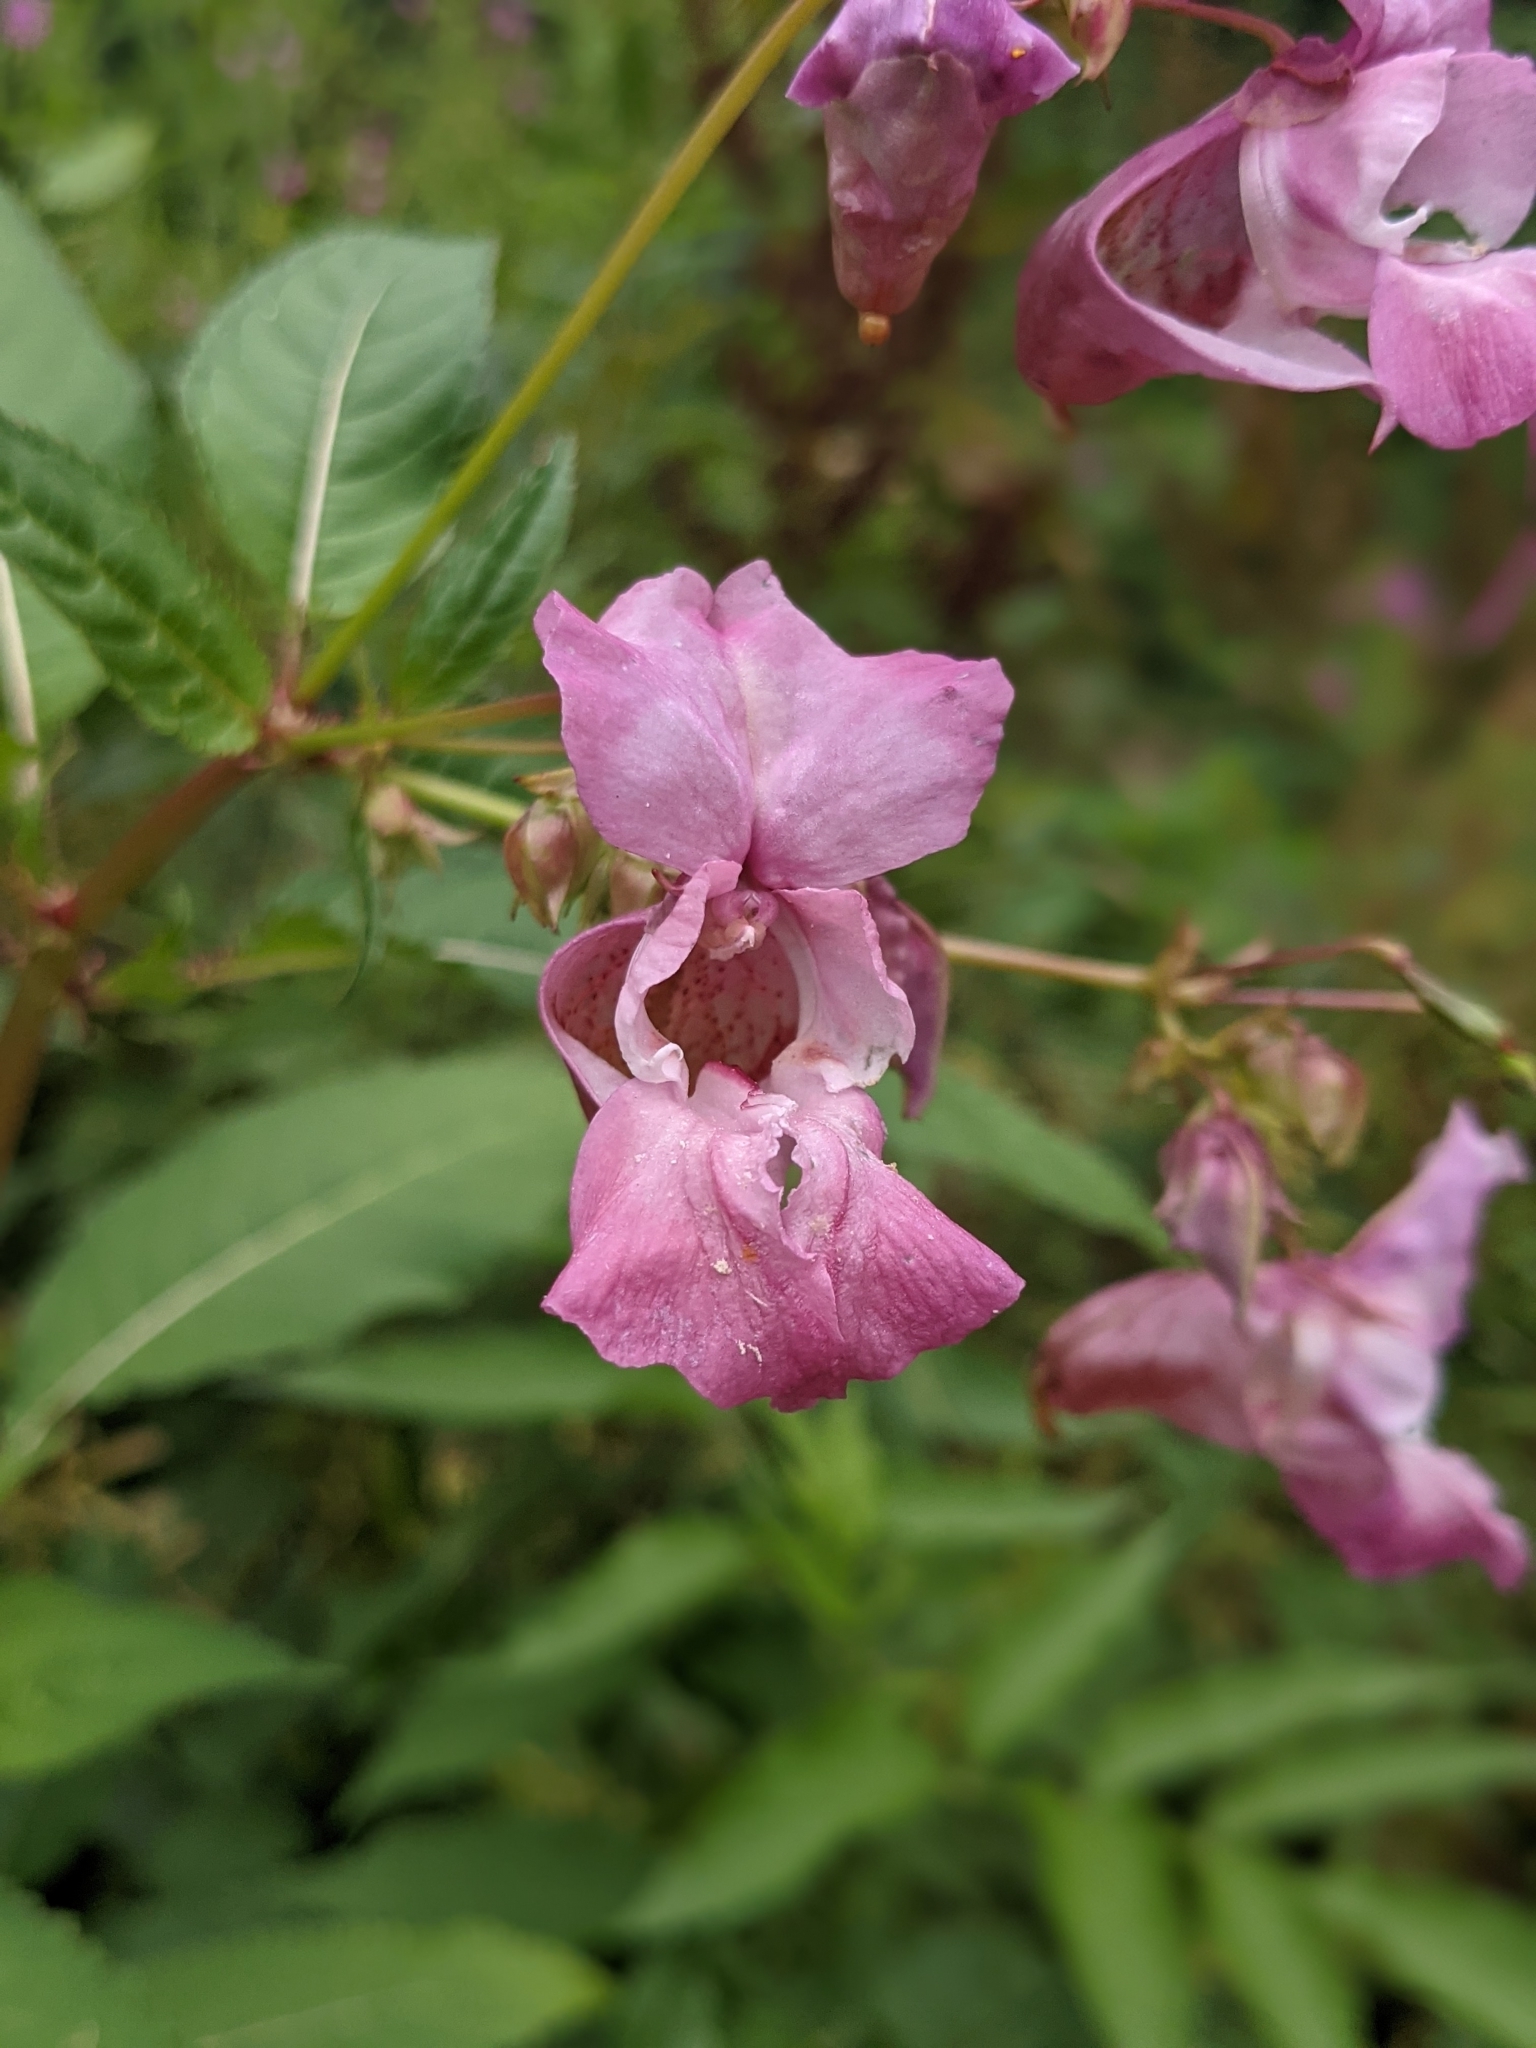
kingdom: Plantae
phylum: Tracheophyta
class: Magnoliopsida
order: Ericales
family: Balsaminaceae
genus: Impatiens
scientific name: Impatiens glandulifera
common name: Himalayan balsam
